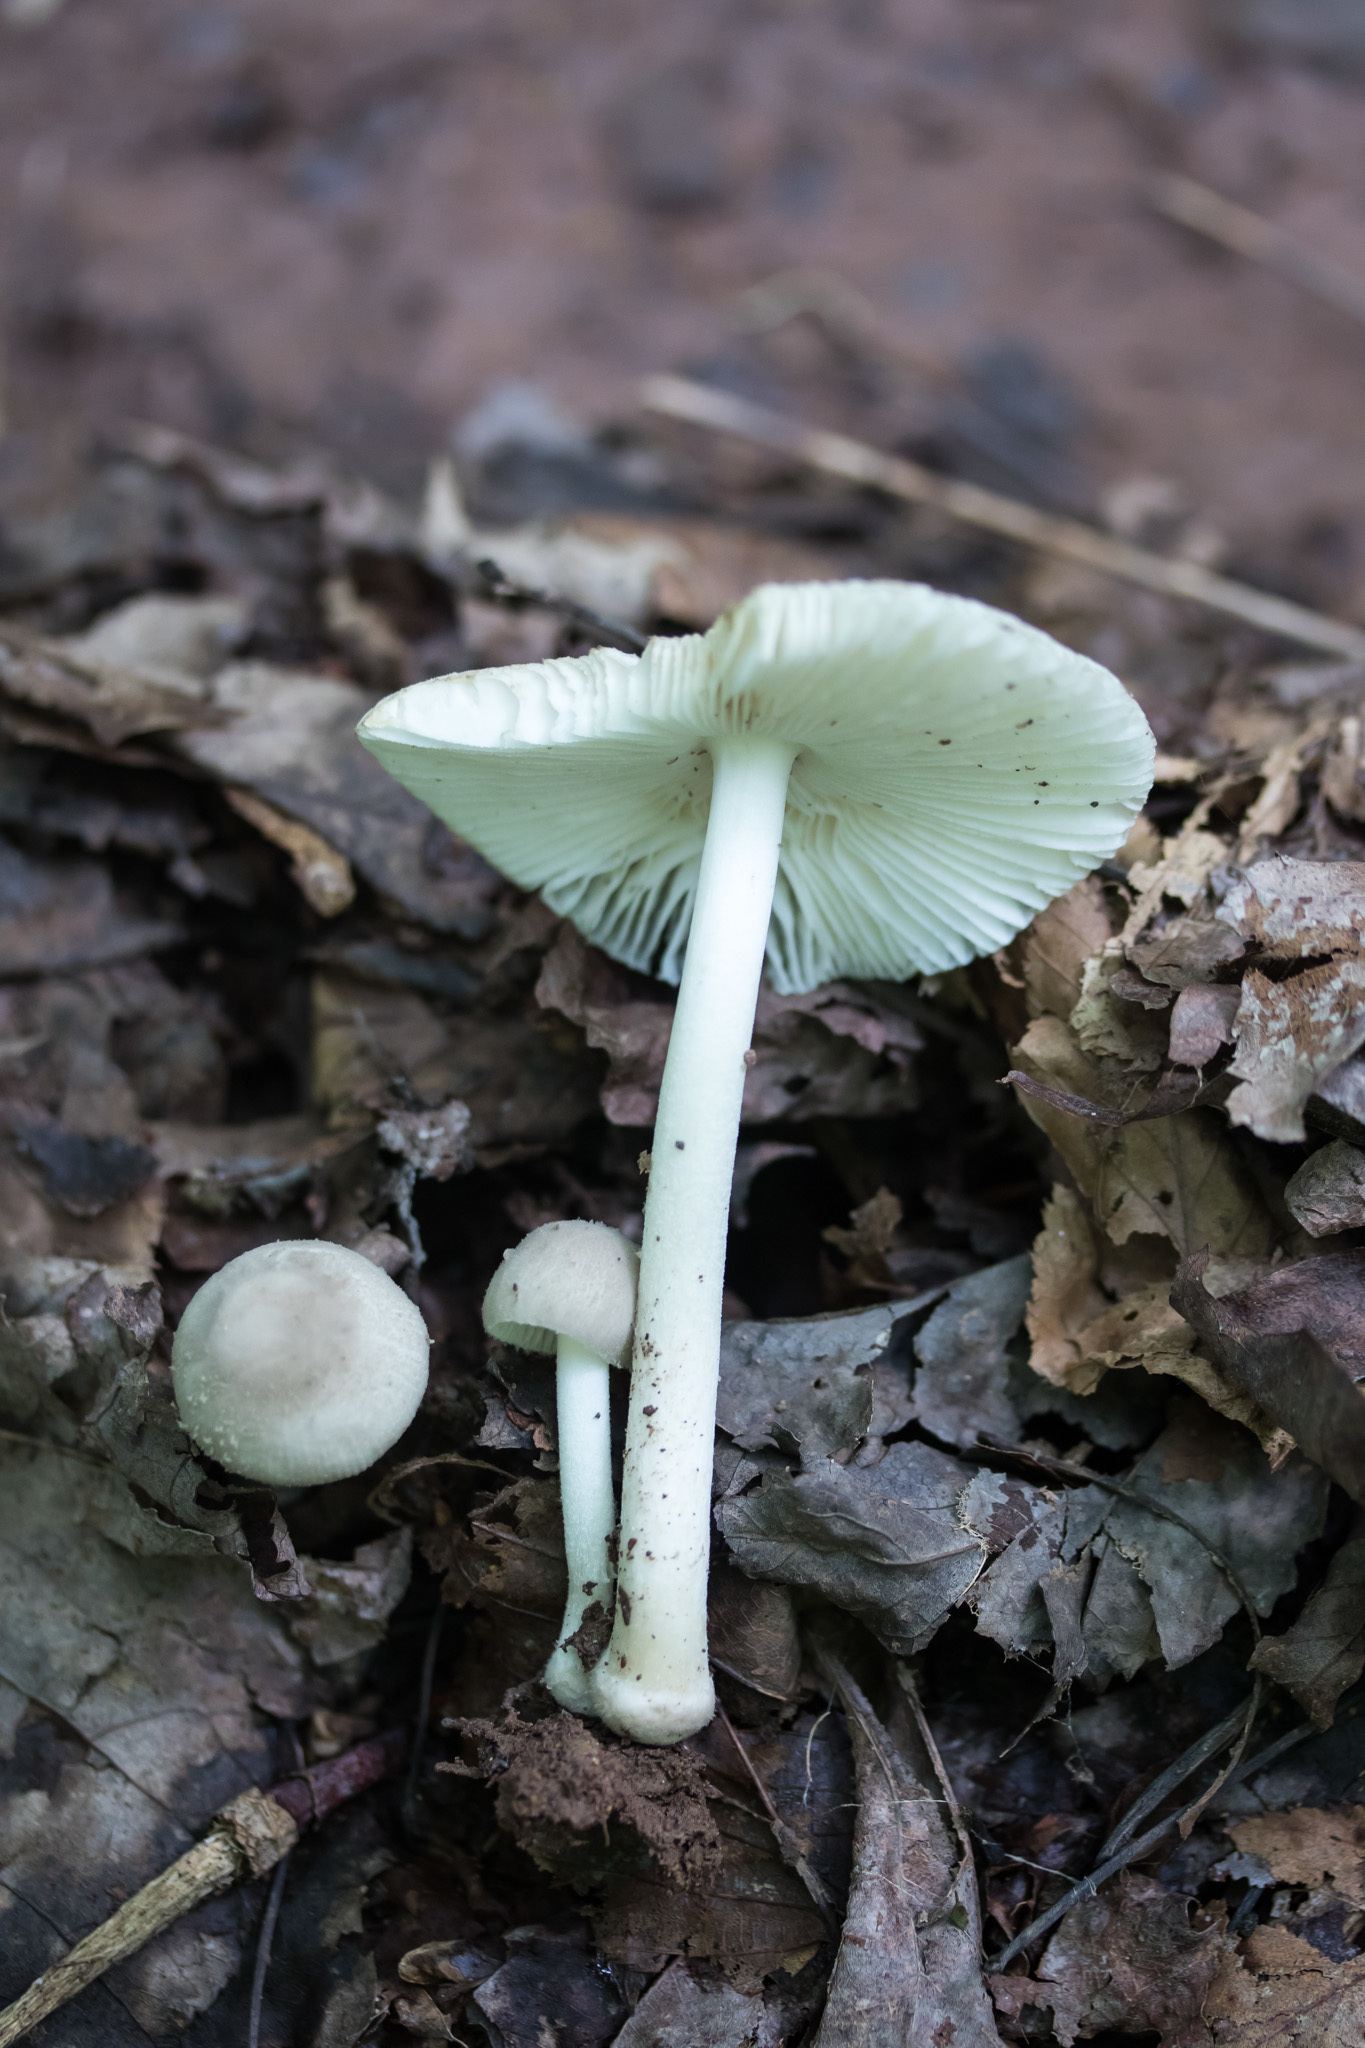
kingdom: Fungi
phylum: Basidiomycota
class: Agaricomycetes
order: Agaricales
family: Amanitaceae
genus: Amanita
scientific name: Amanita farinosa
